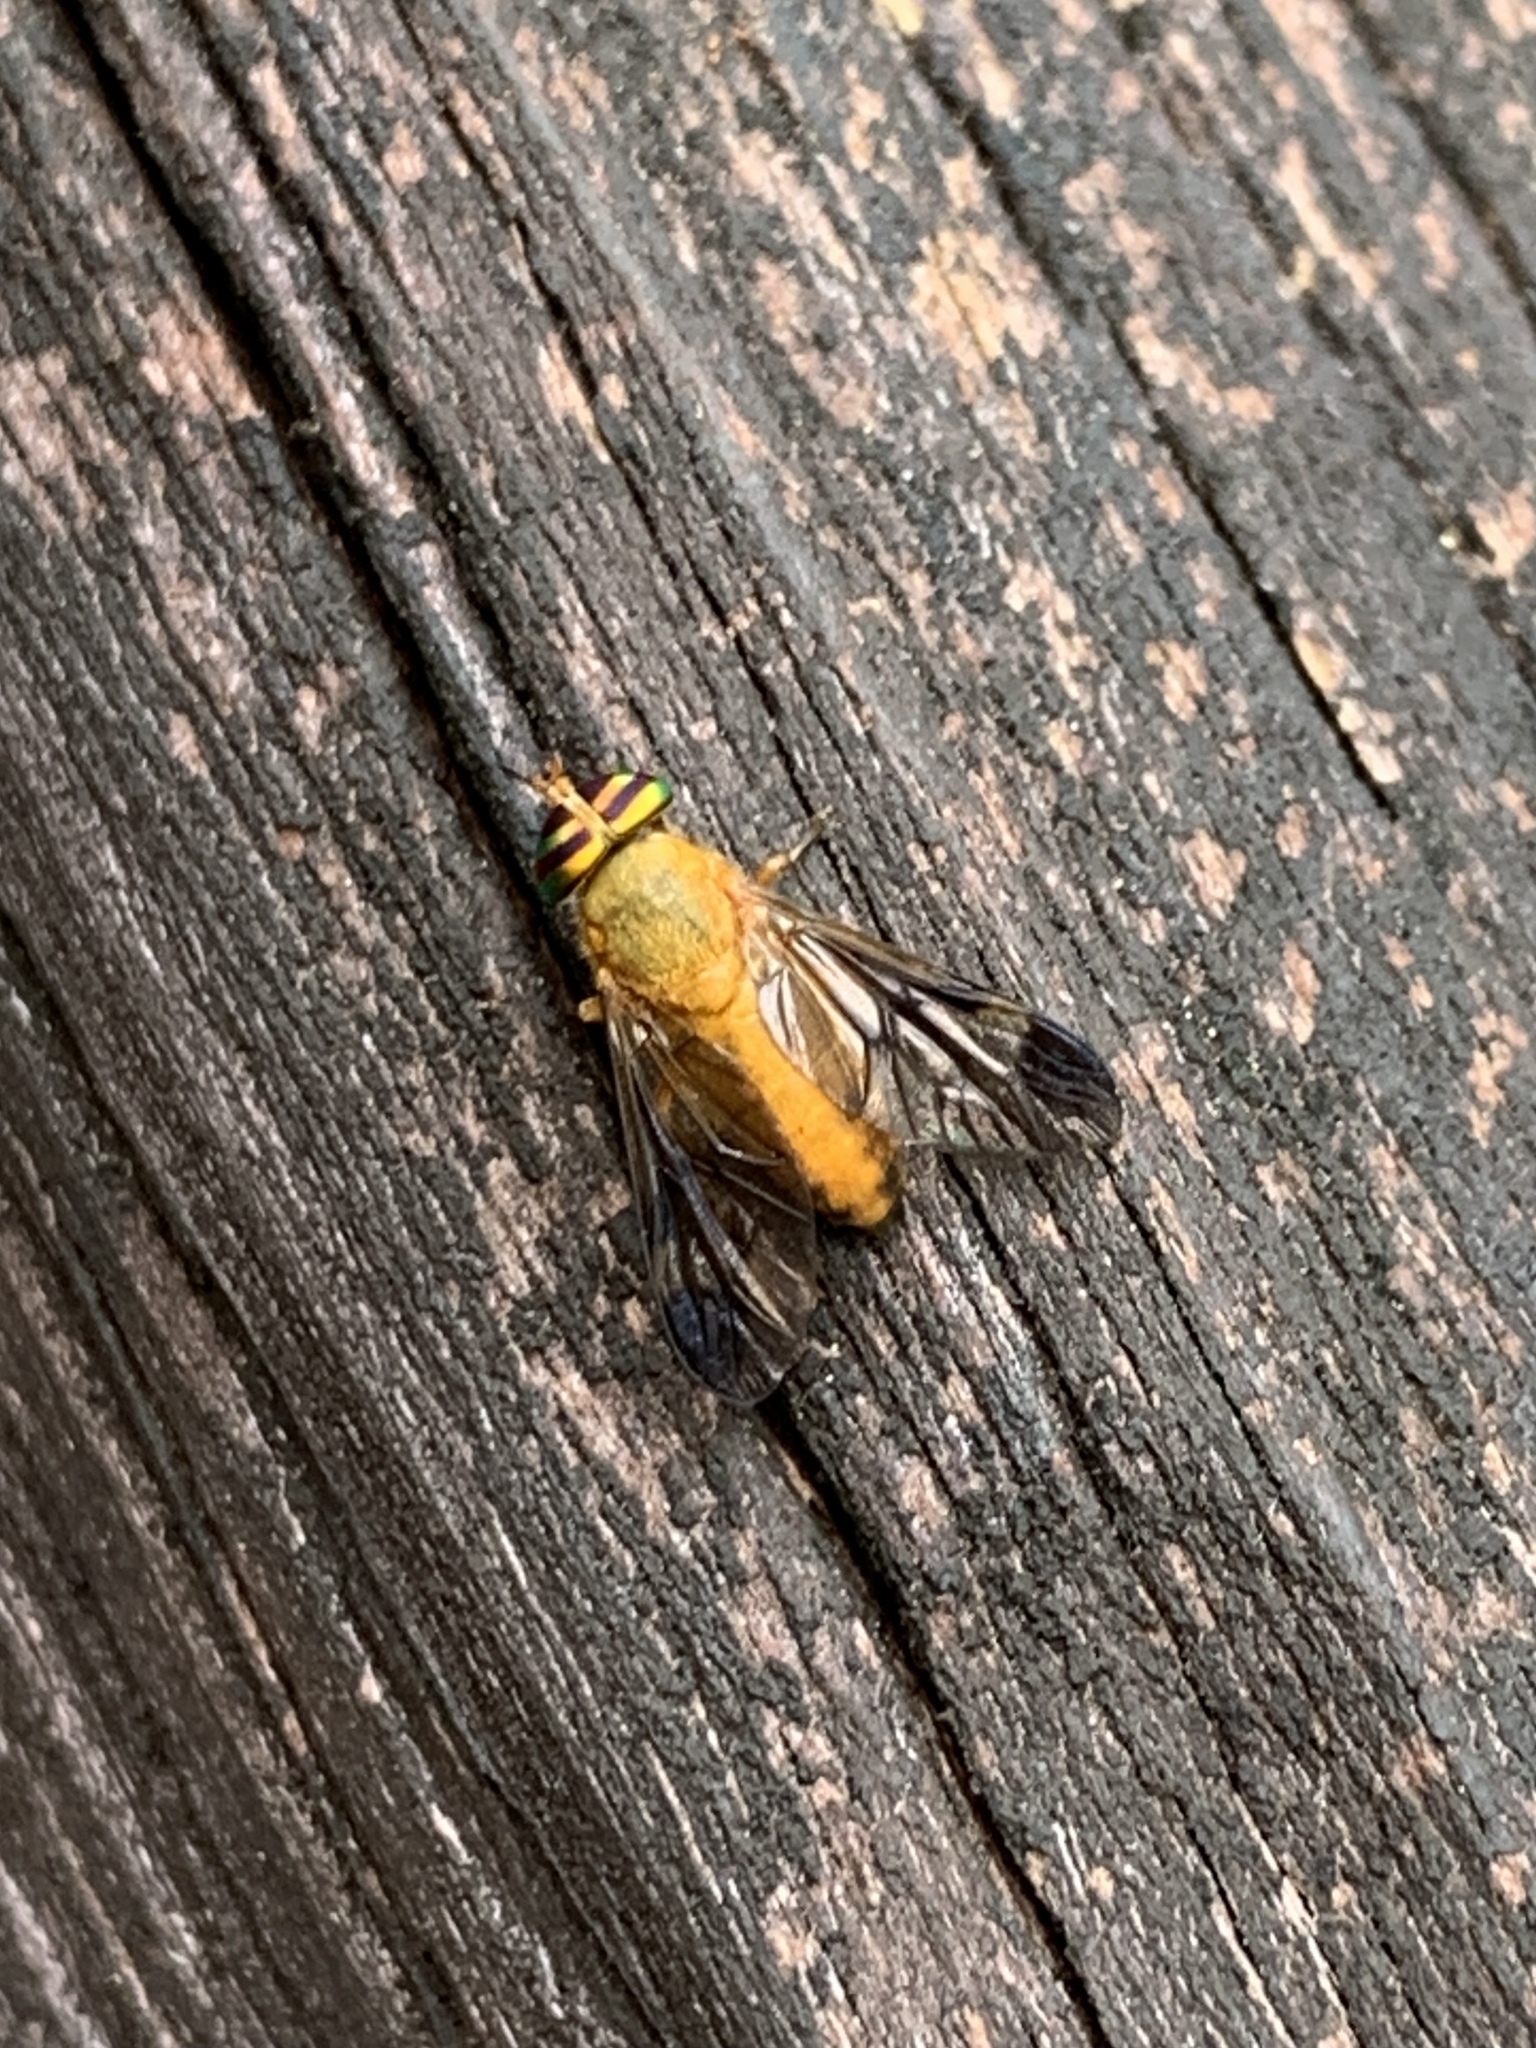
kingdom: Animalia
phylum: Arthropoda
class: Insecta
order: Diptera
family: Tabanidae
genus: Diachlorus
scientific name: Diachlorus ferrugatus
